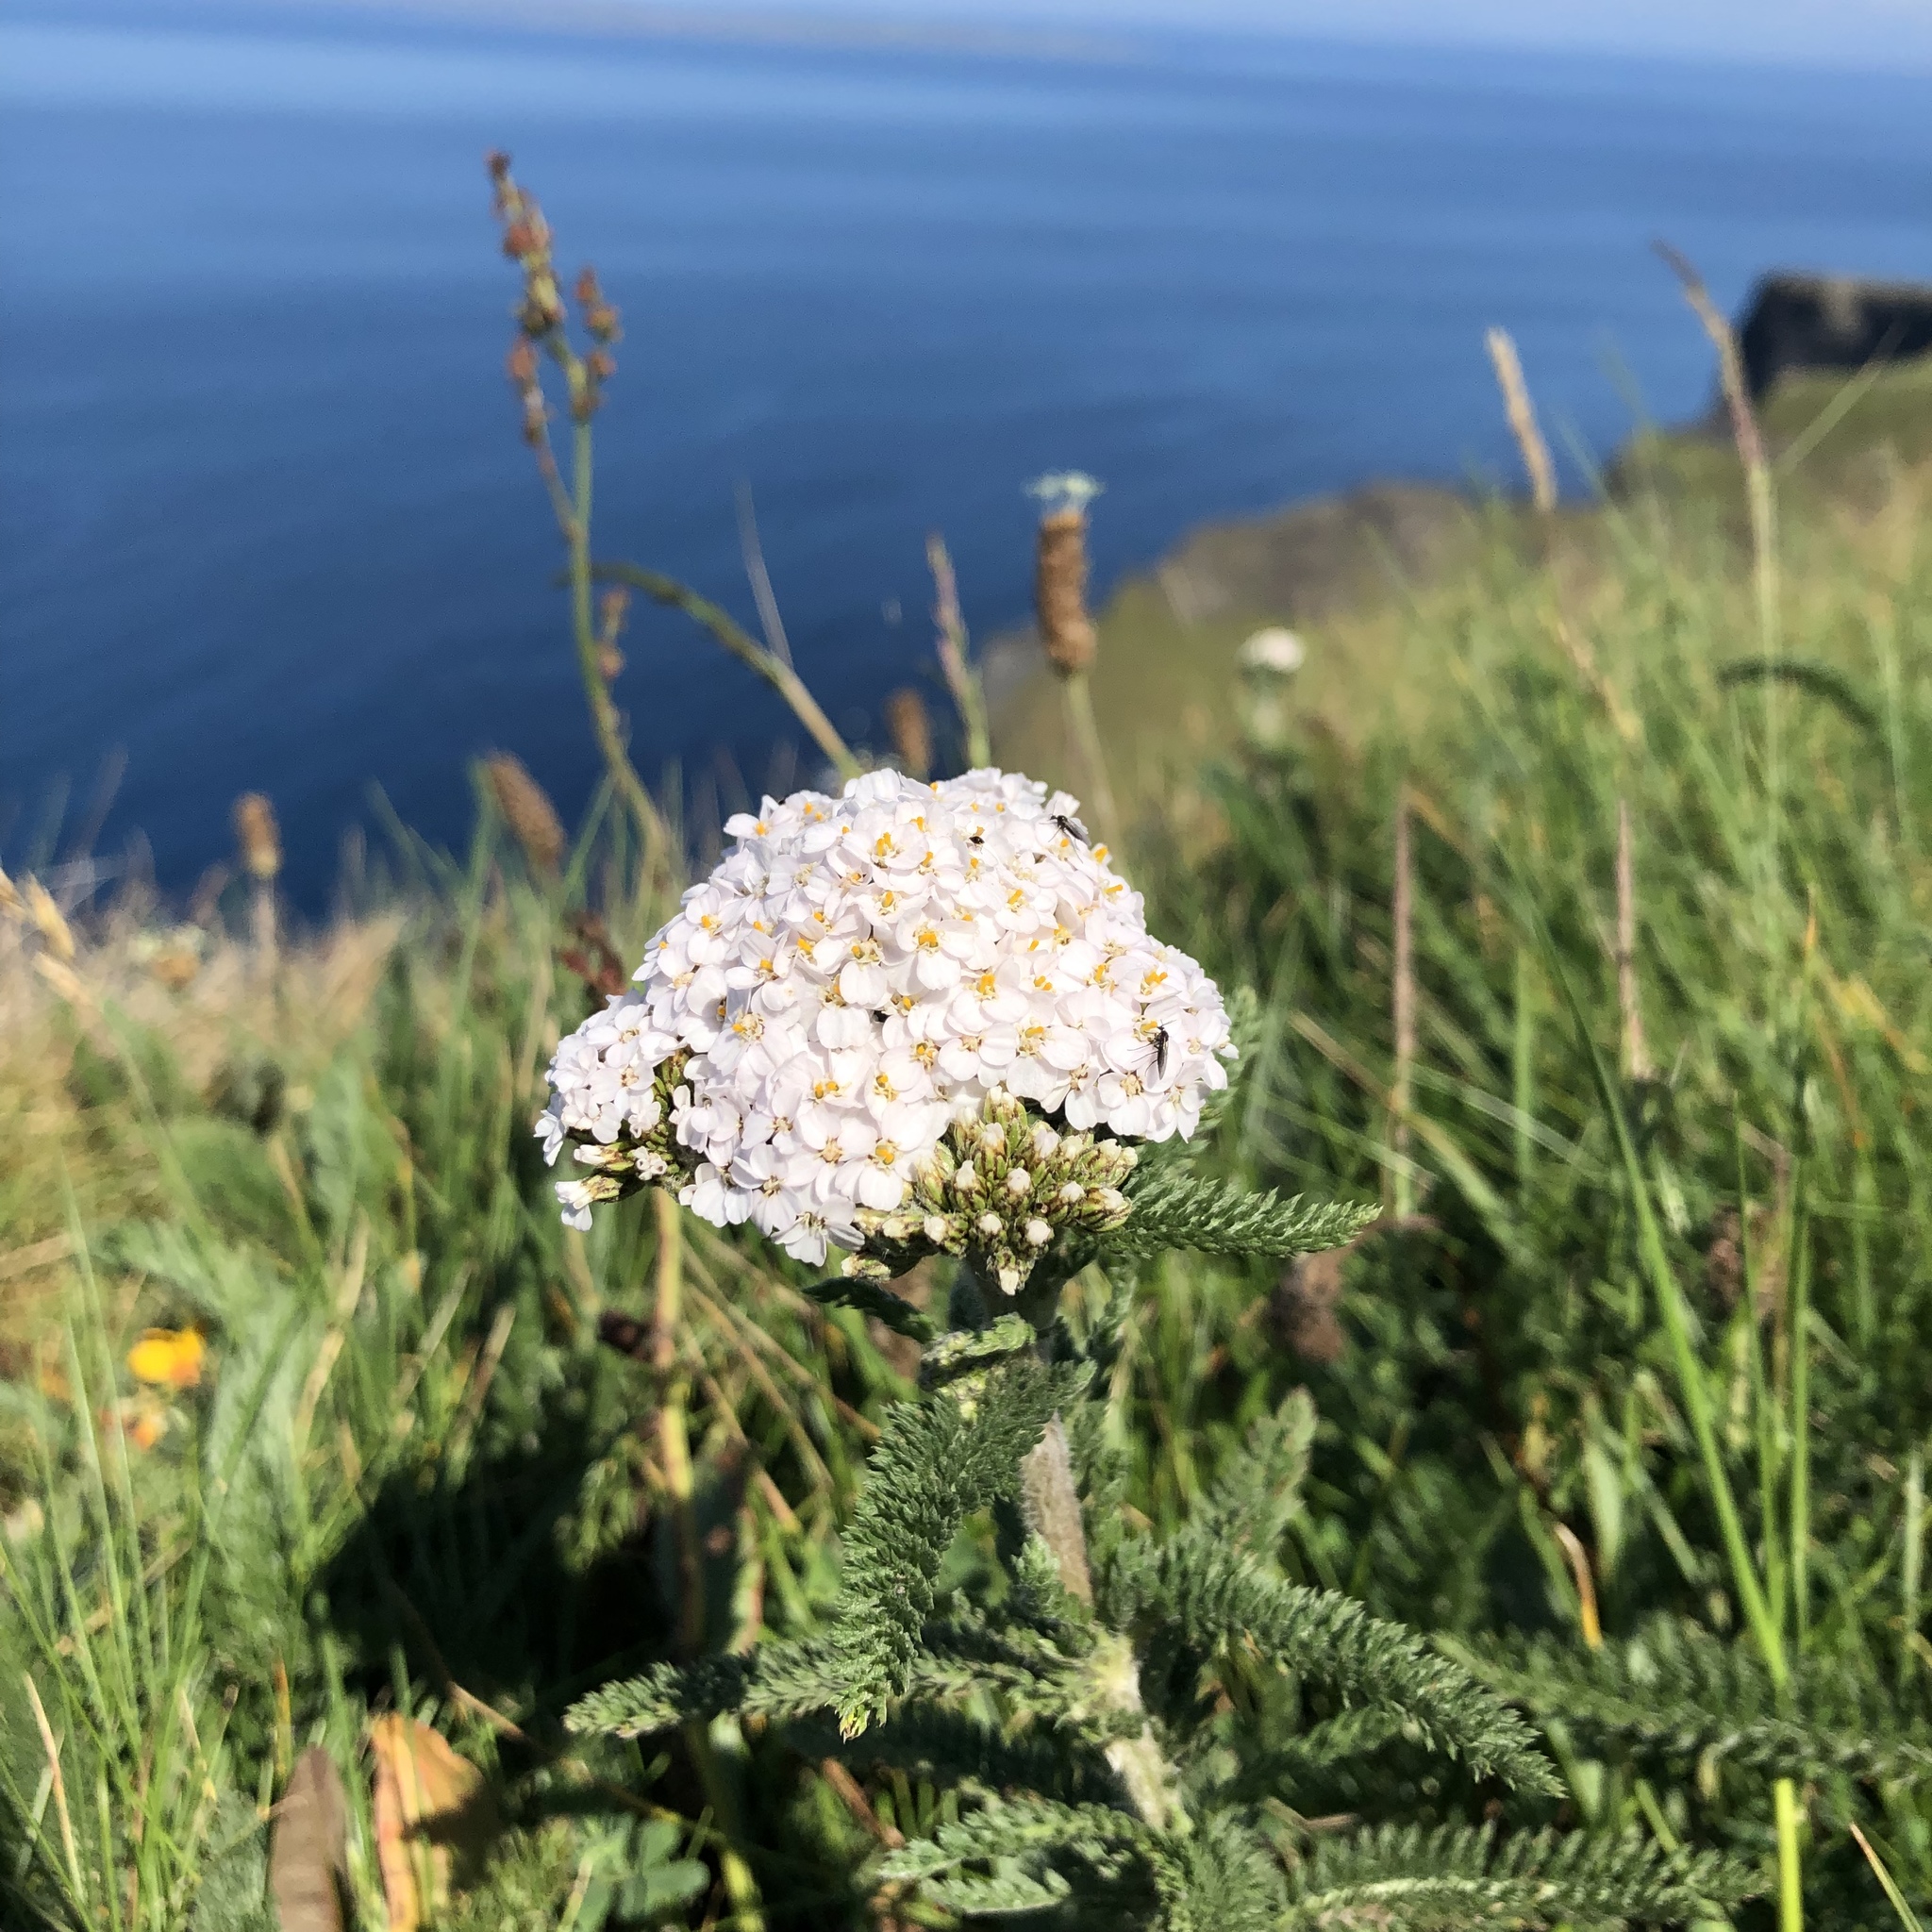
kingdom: Plantae
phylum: Tracheophyta
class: Magnoliopsida
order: Asterales
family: Asteraceae
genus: Achillea
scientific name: Achillea millefolium
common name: Yarrow
